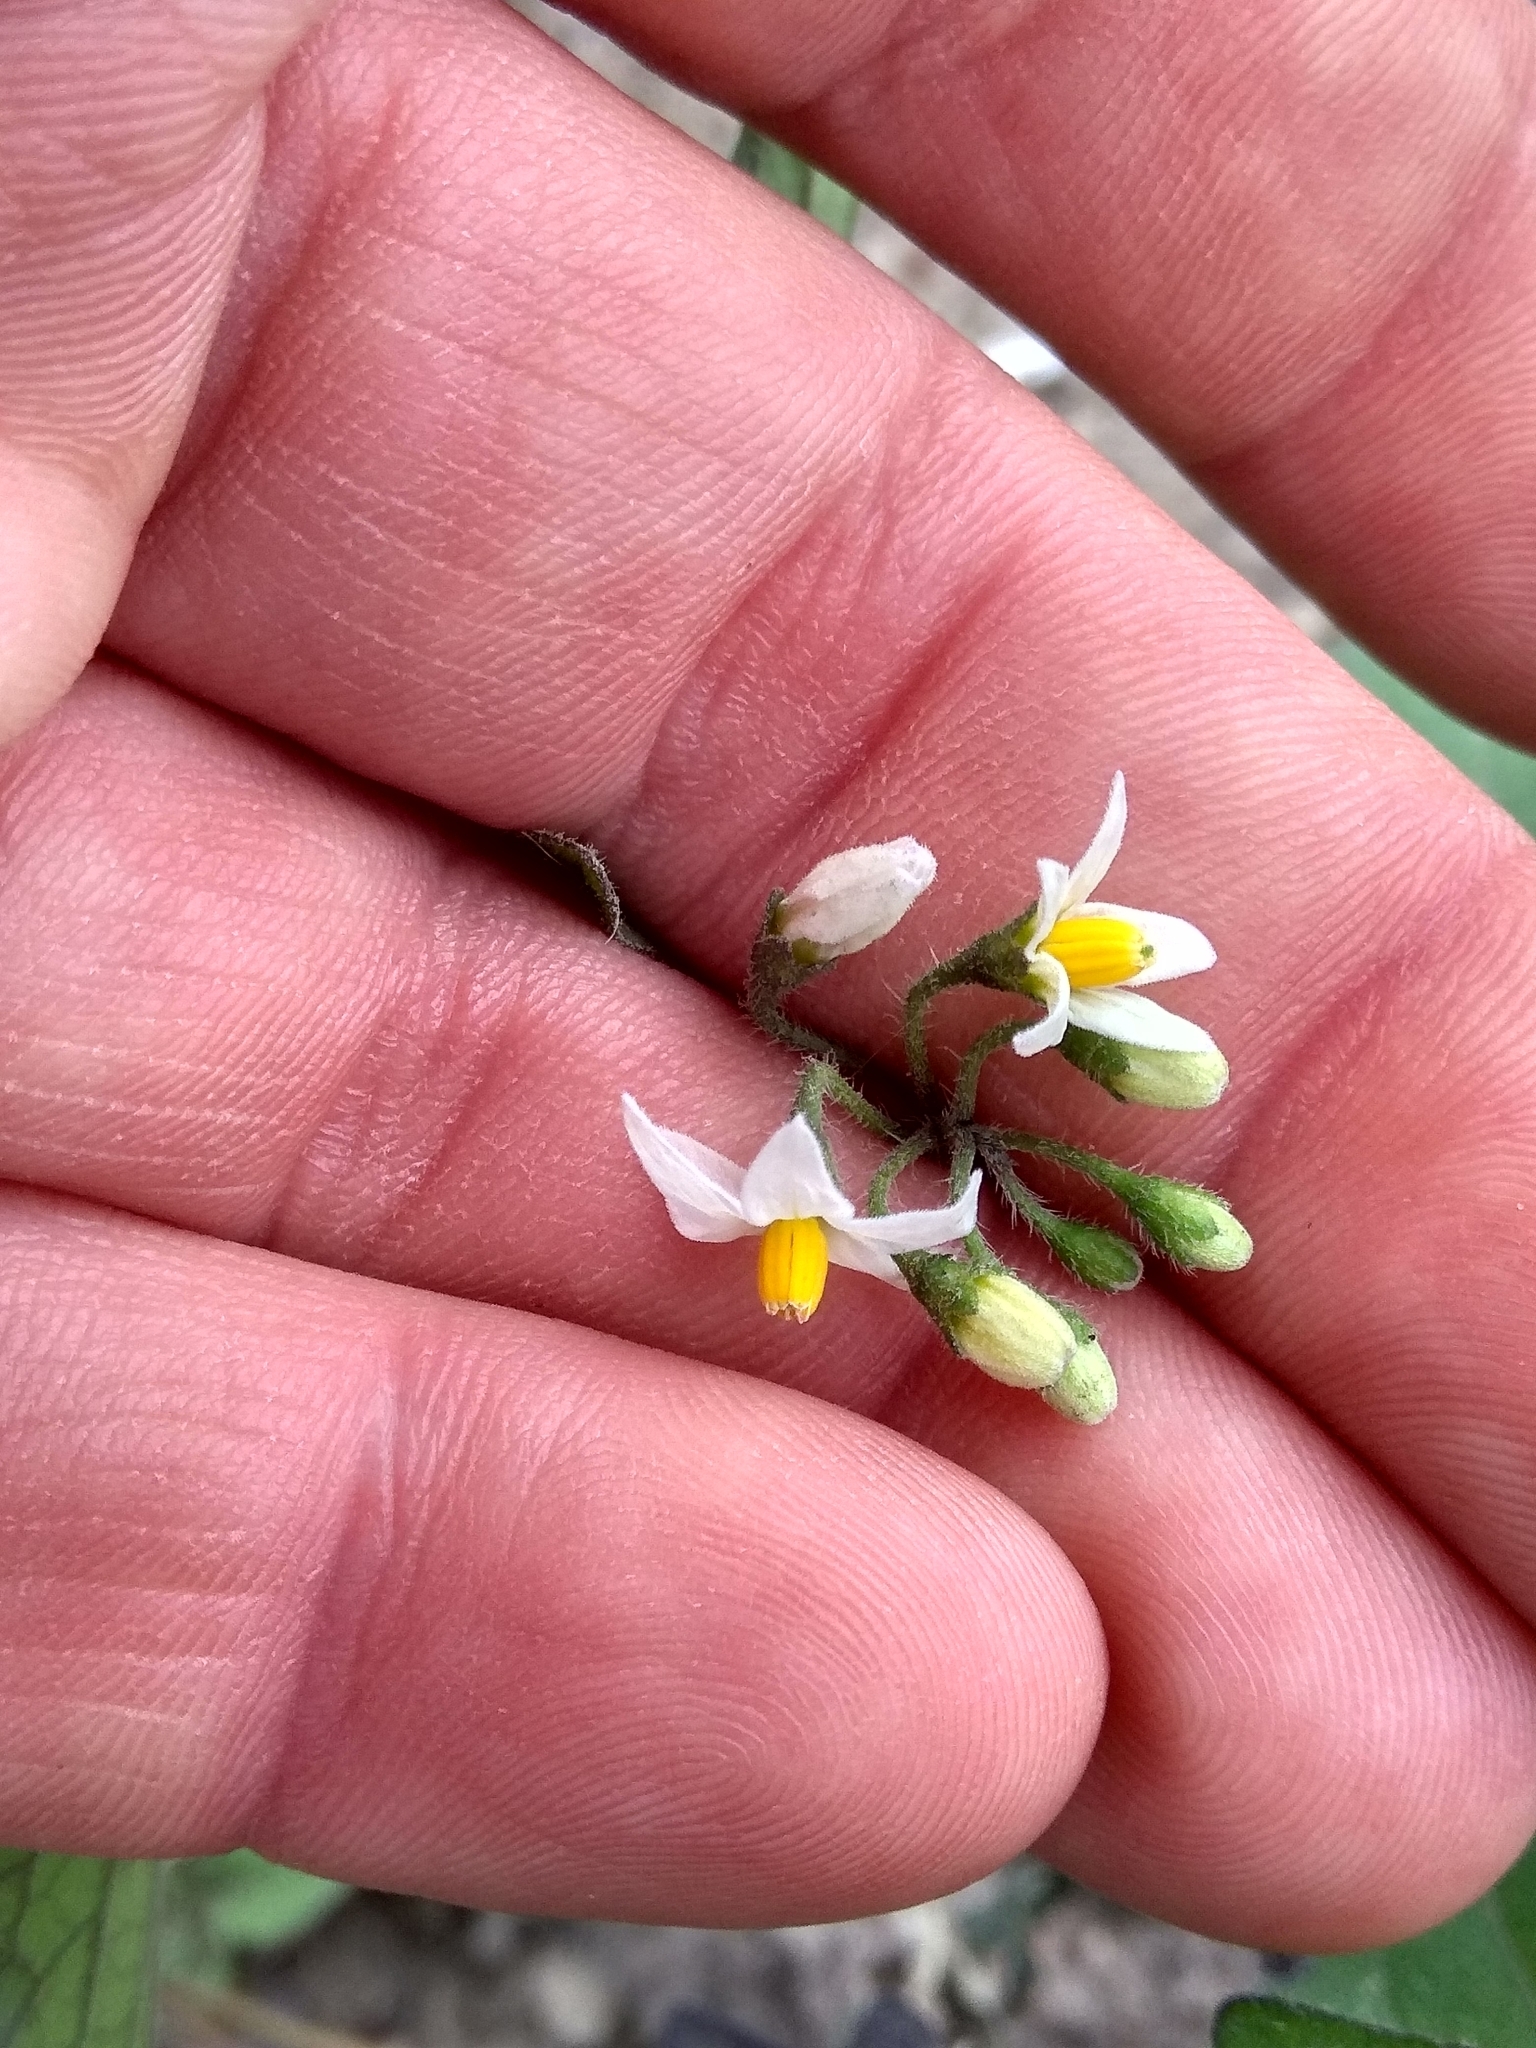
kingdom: Plantae
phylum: Tracheophyta
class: Magnoliopsida
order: Solanales
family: Solanaceae
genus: Solanum
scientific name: Solanum nigrum
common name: Black nightshade
